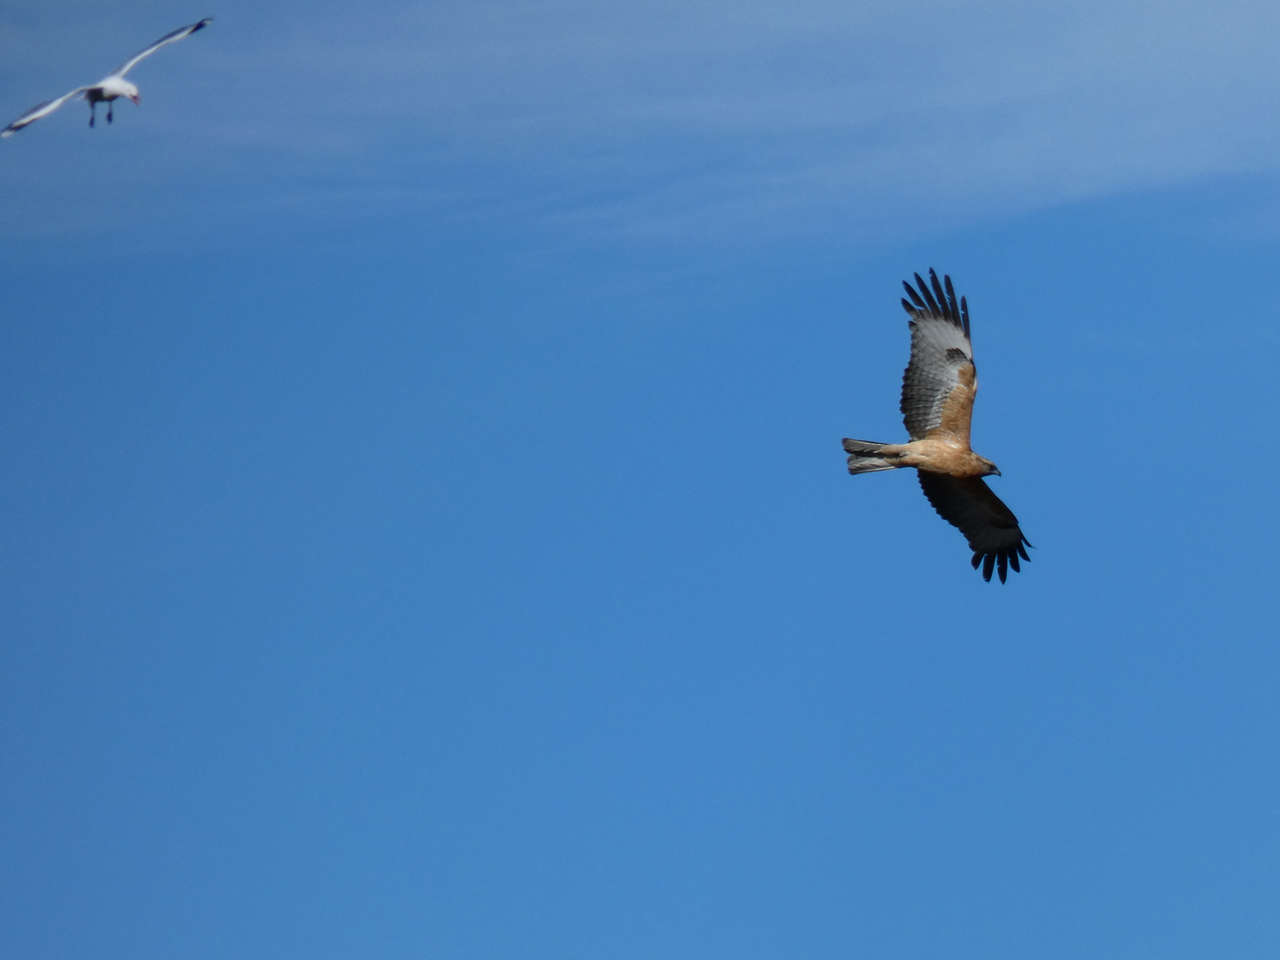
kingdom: Animalia
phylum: Chordata
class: Aves
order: Charadriiformes
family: Laridae
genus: Chroicocephalus
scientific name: Chroicocephalus novaehollandiae
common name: Silver gull
